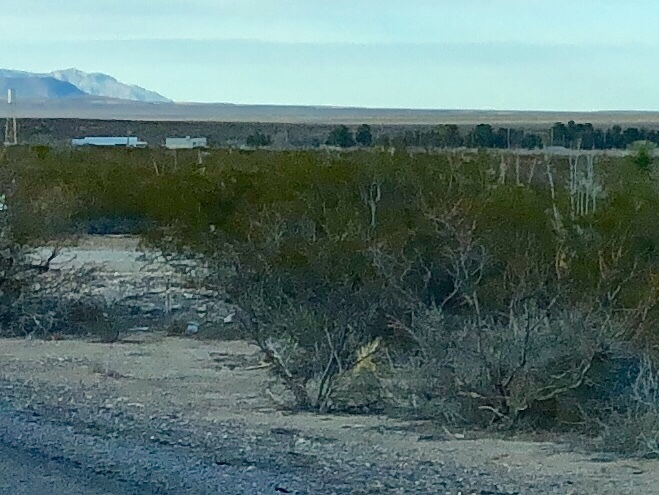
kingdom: Plantae
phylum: Tracheophyta
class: Magnoliopsida
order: Zygophyllales
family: Zygophyllaceae
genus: Larrea
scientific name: Larrea tridentata
